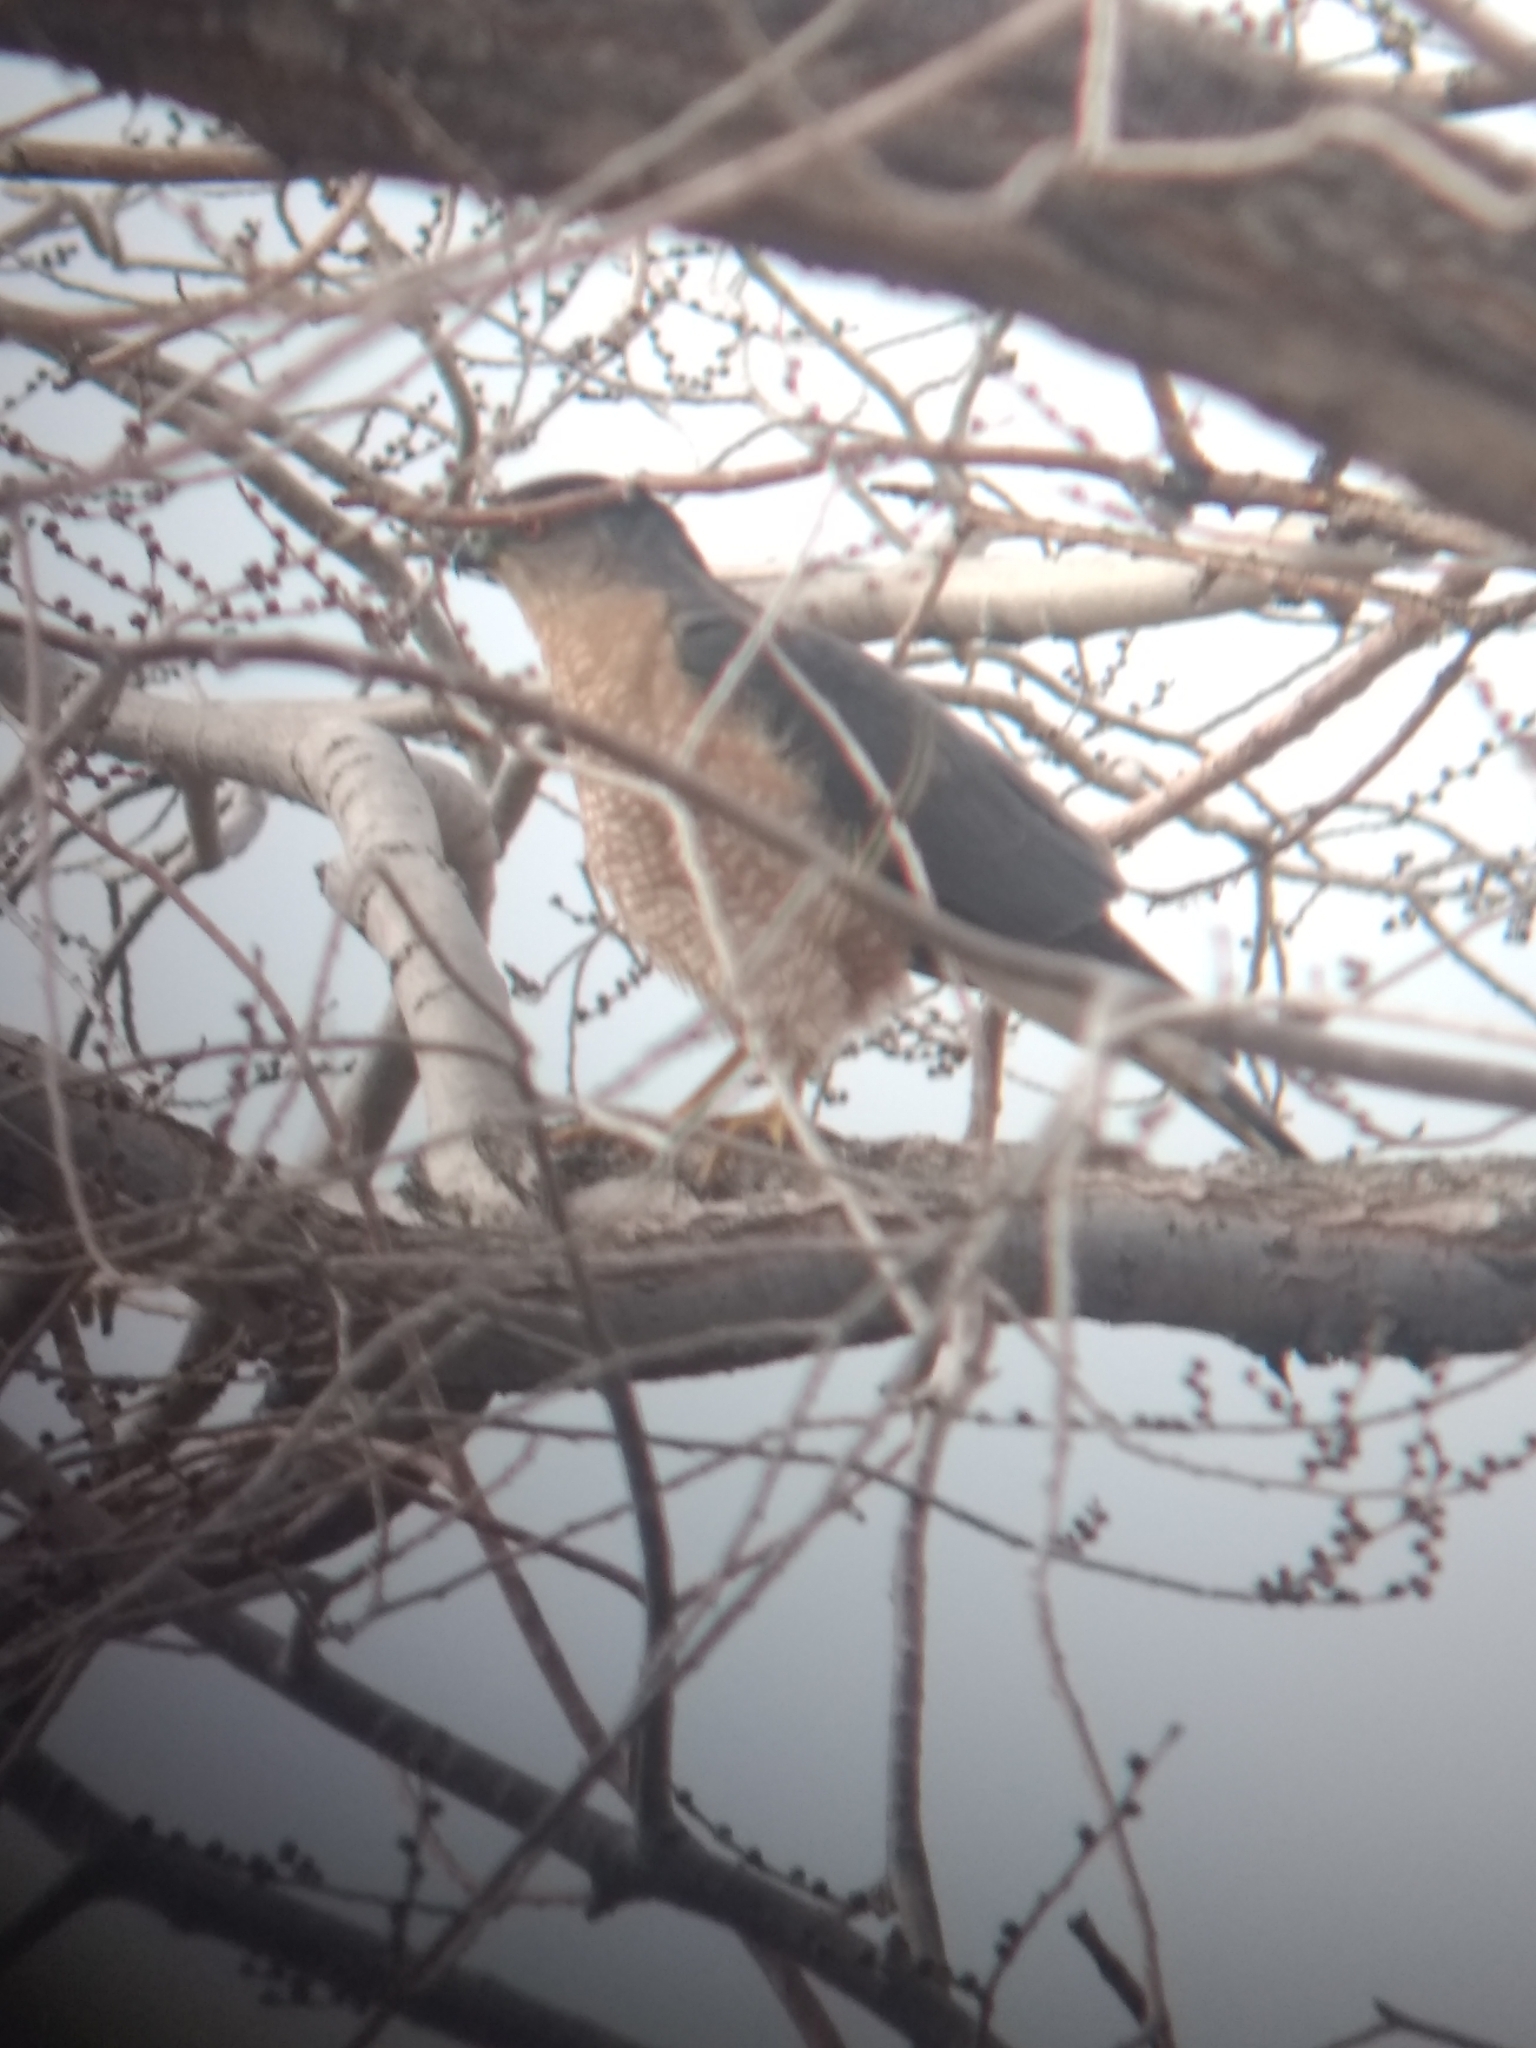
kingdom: Animalia
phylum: Chordata
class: Aves
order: Accipitriformes
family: Accipitridae
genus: Accipiter
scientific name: Accipiter cooperii
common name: Cooper's hawk
